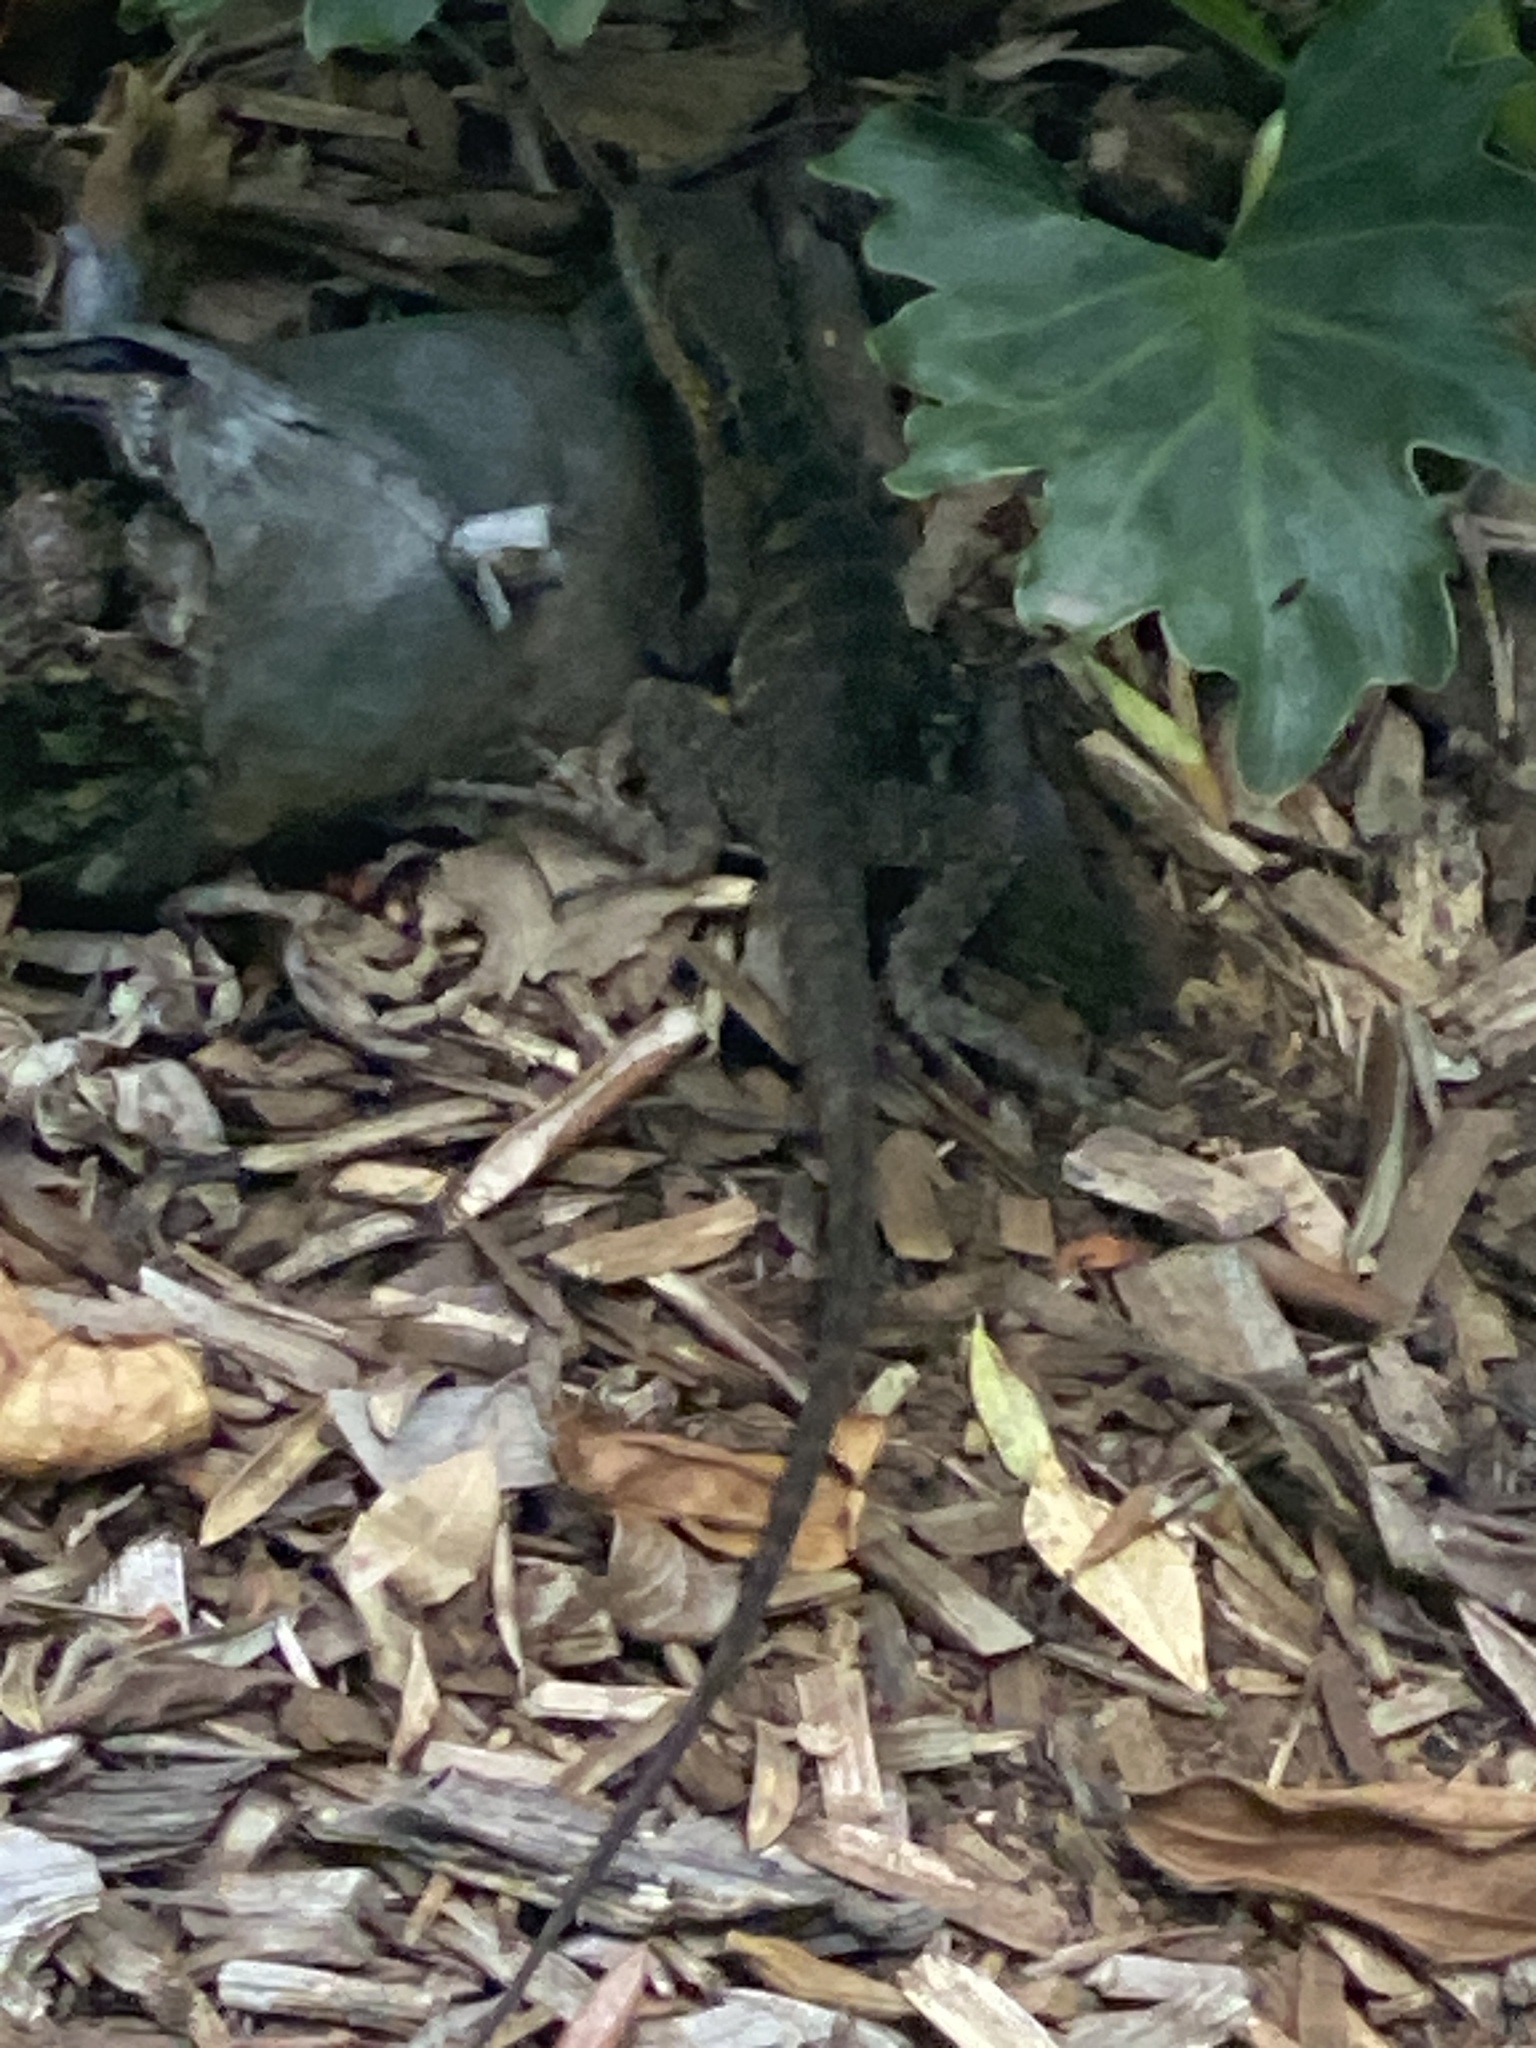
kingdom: Animalia
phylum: Chordata
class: Squamata
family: Agamidae
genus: Intellagama
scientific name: Intellagama lesueurii
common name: Eastern water dragon
